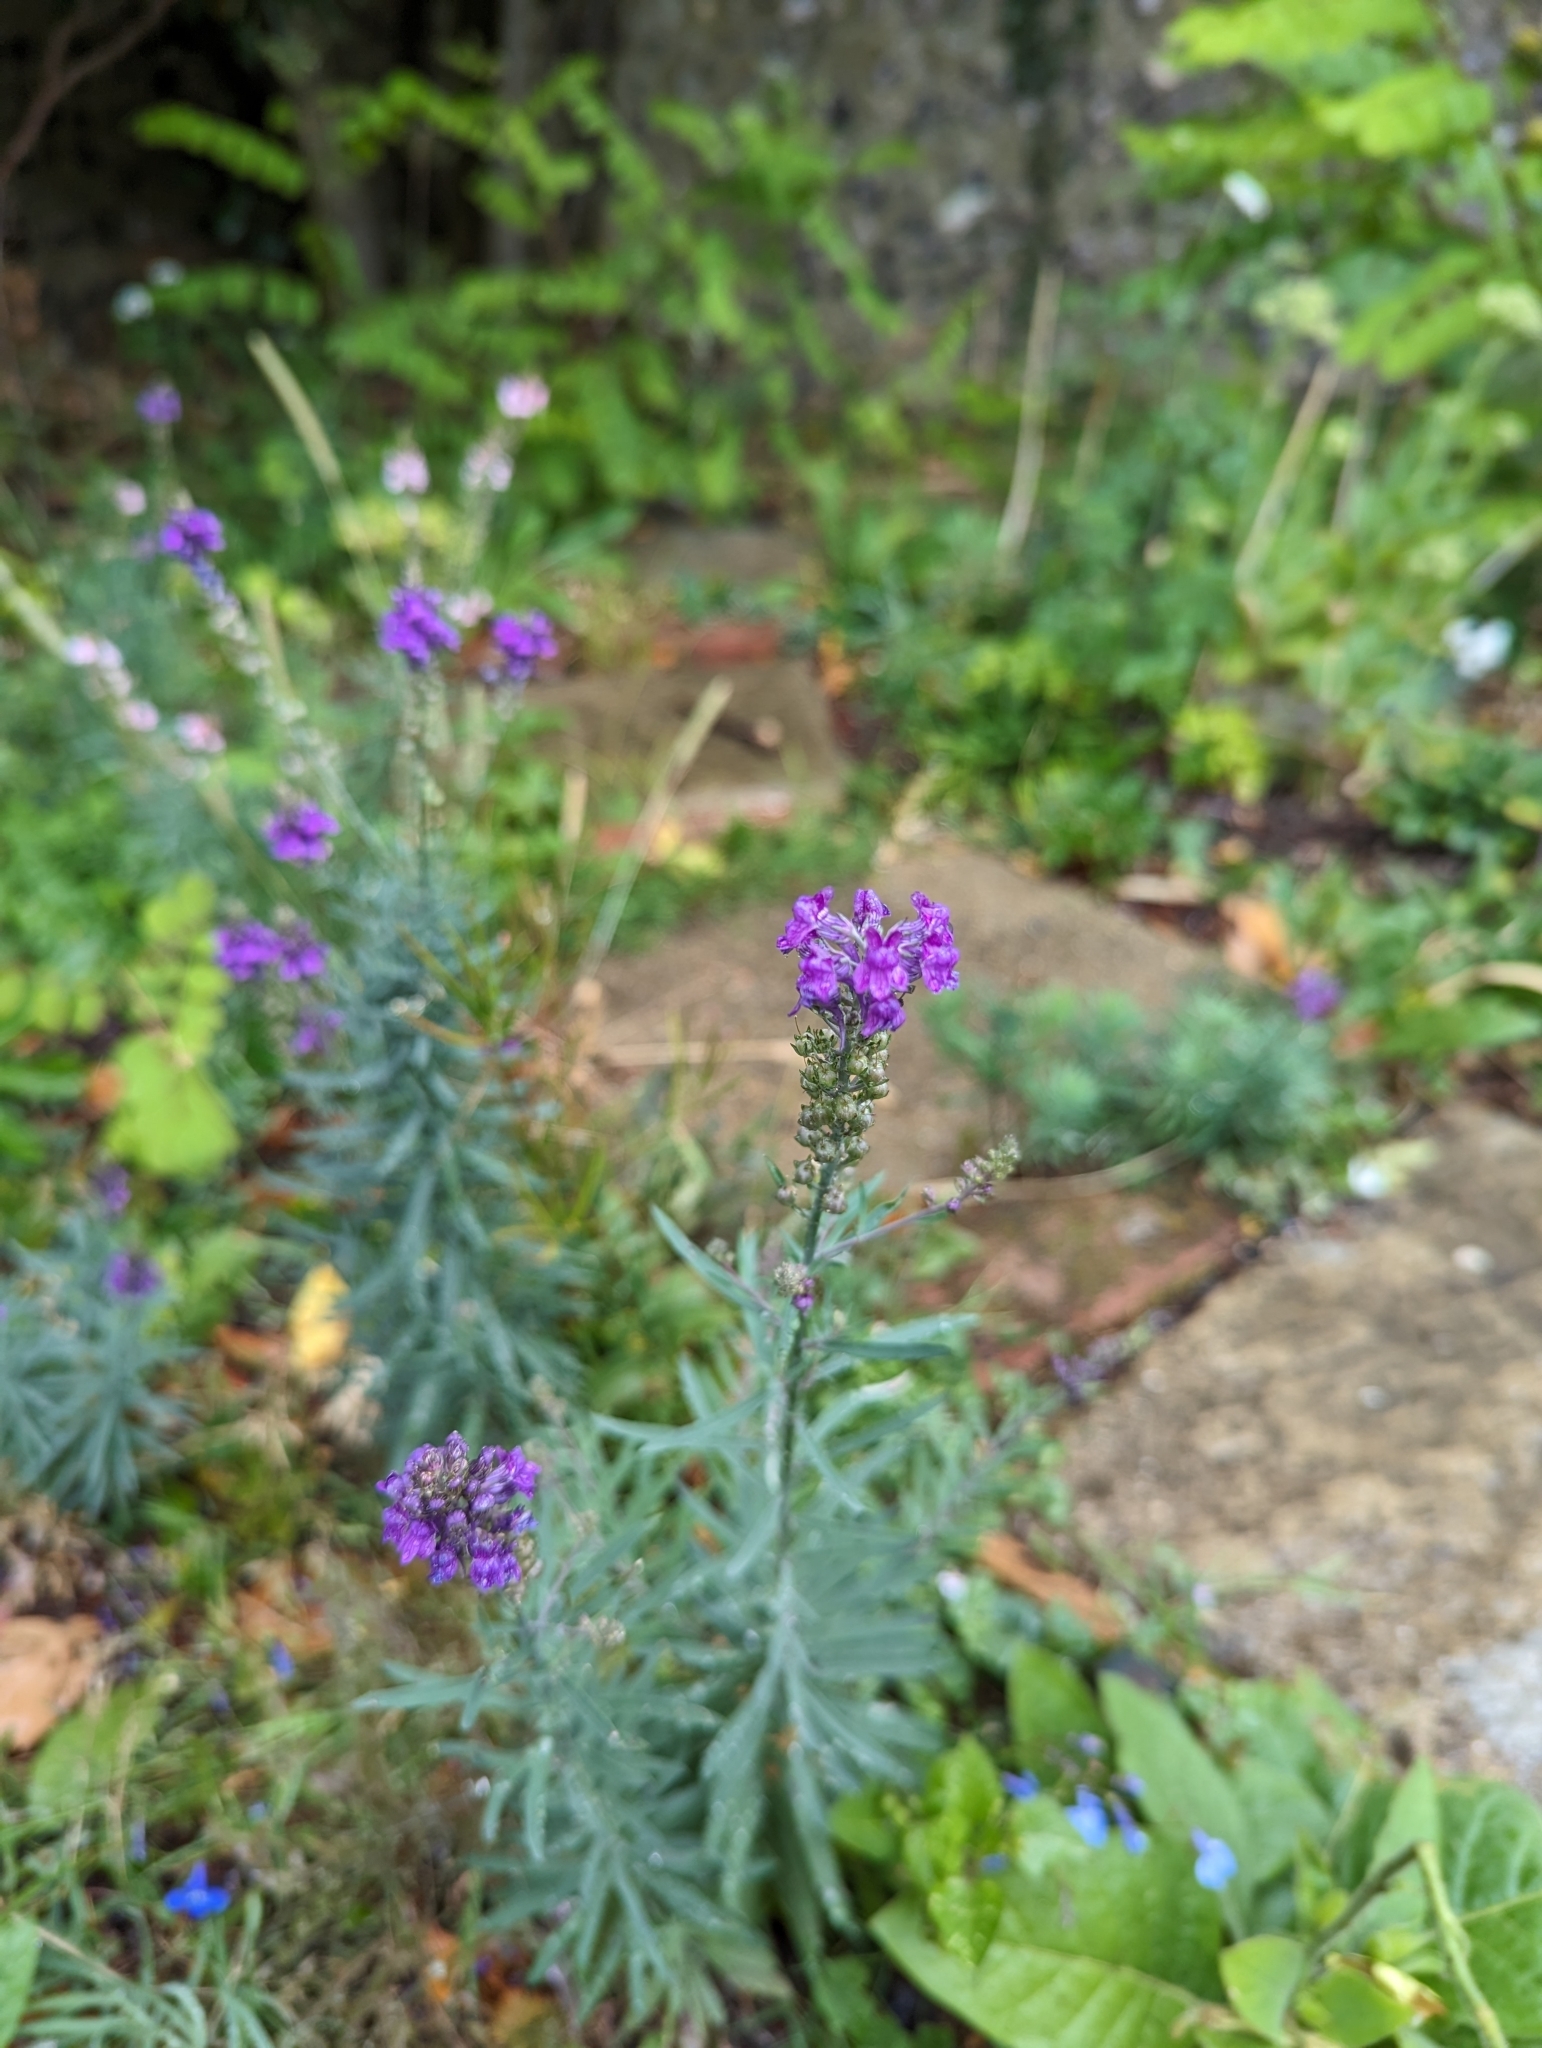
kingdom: Plantae
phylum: Tracheophyta
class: Magnoliopsida
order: Lamiales
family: Plantaginaceae
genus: Linaria
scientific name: Linaria purpurea
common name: Purple toadflax
